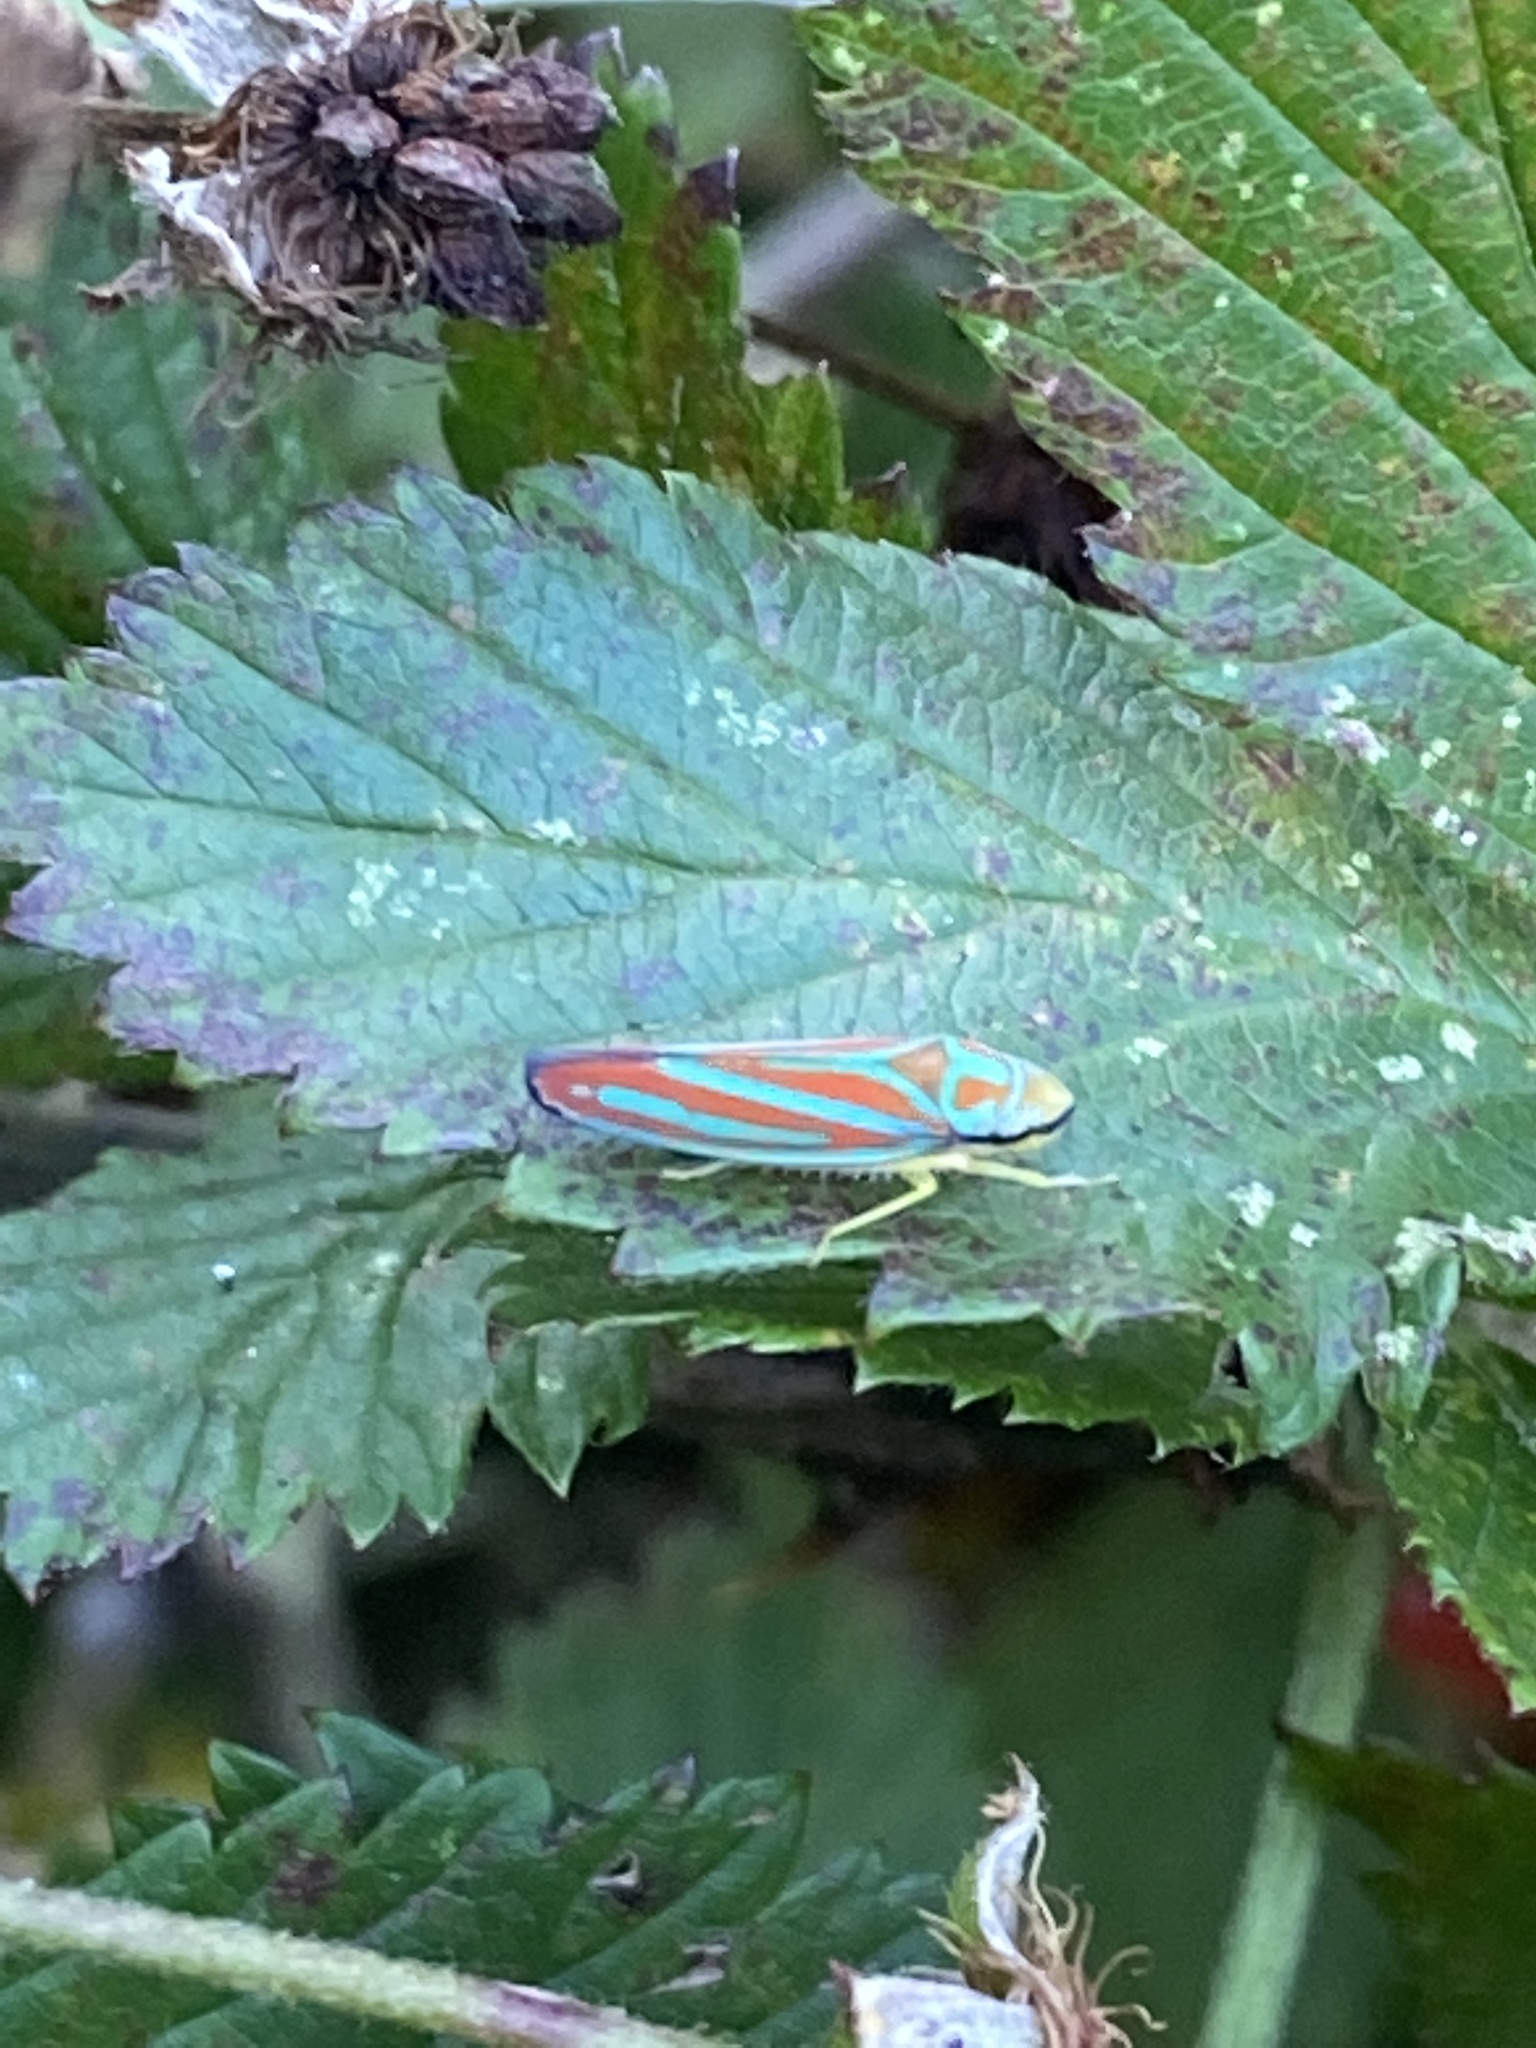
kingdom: Animalia
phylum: Arthropoda
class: Insecta
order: Hemiptera
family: Cicadellidae
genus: Graphocephala
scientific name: Graphocephala coccinea
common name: Candy-striped leafhopper
